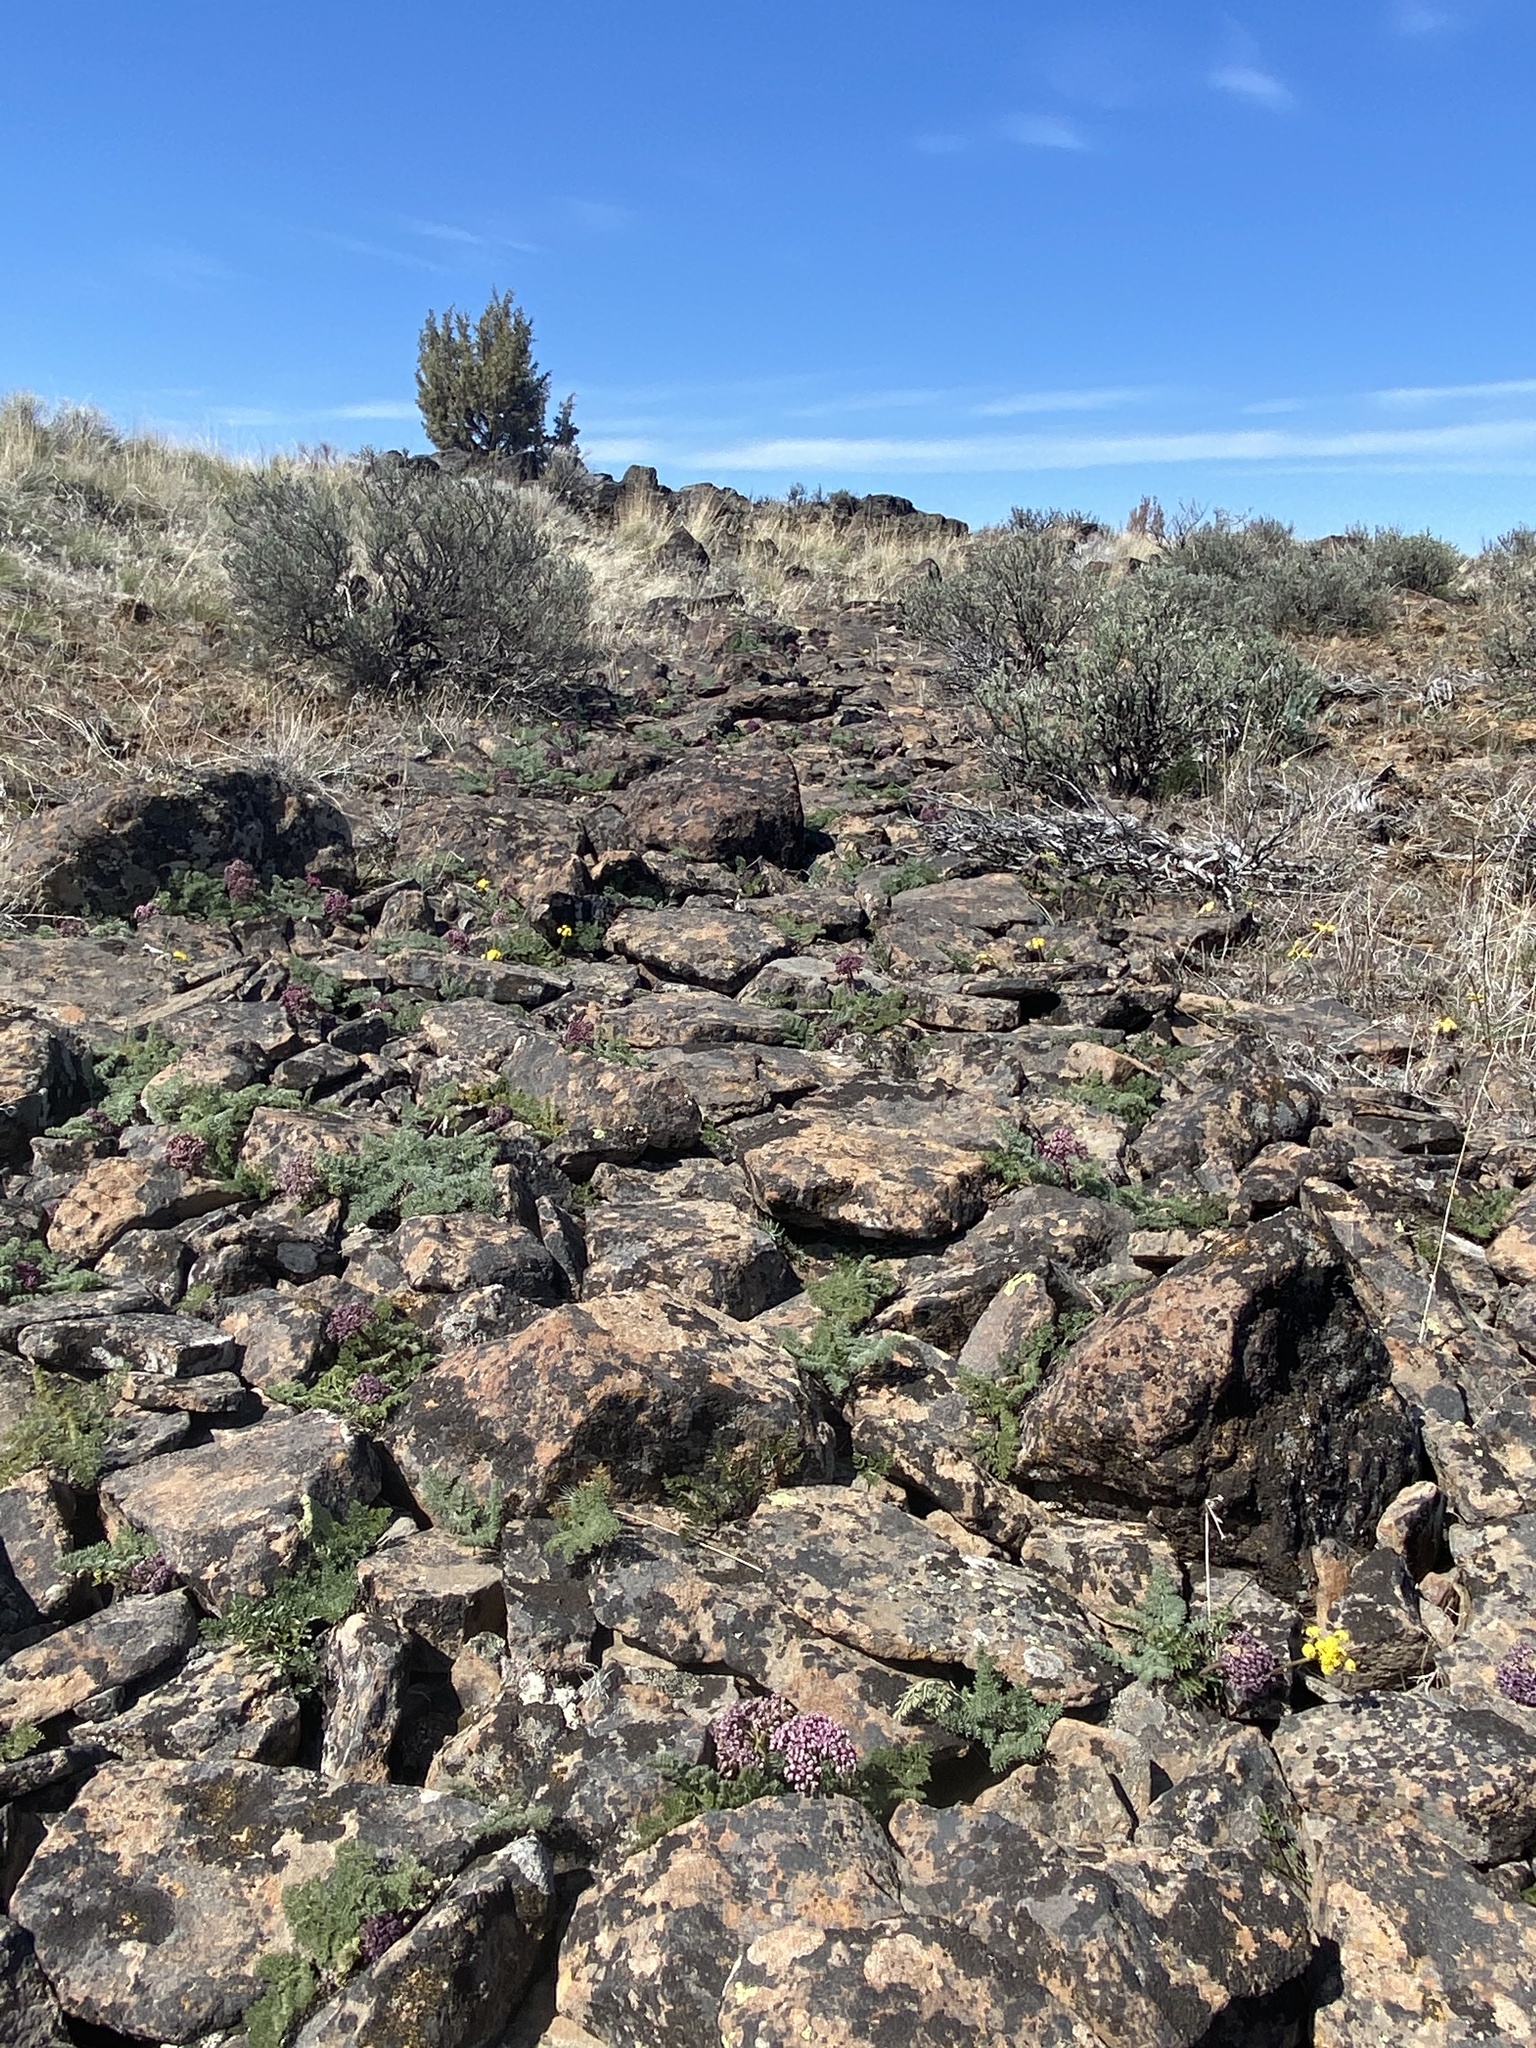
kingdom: Plantae
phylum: Tracheophyta
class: Magnoliopsida
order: Apiales
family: Apiaceae
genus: Lomatium
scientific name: Lomatium minus
